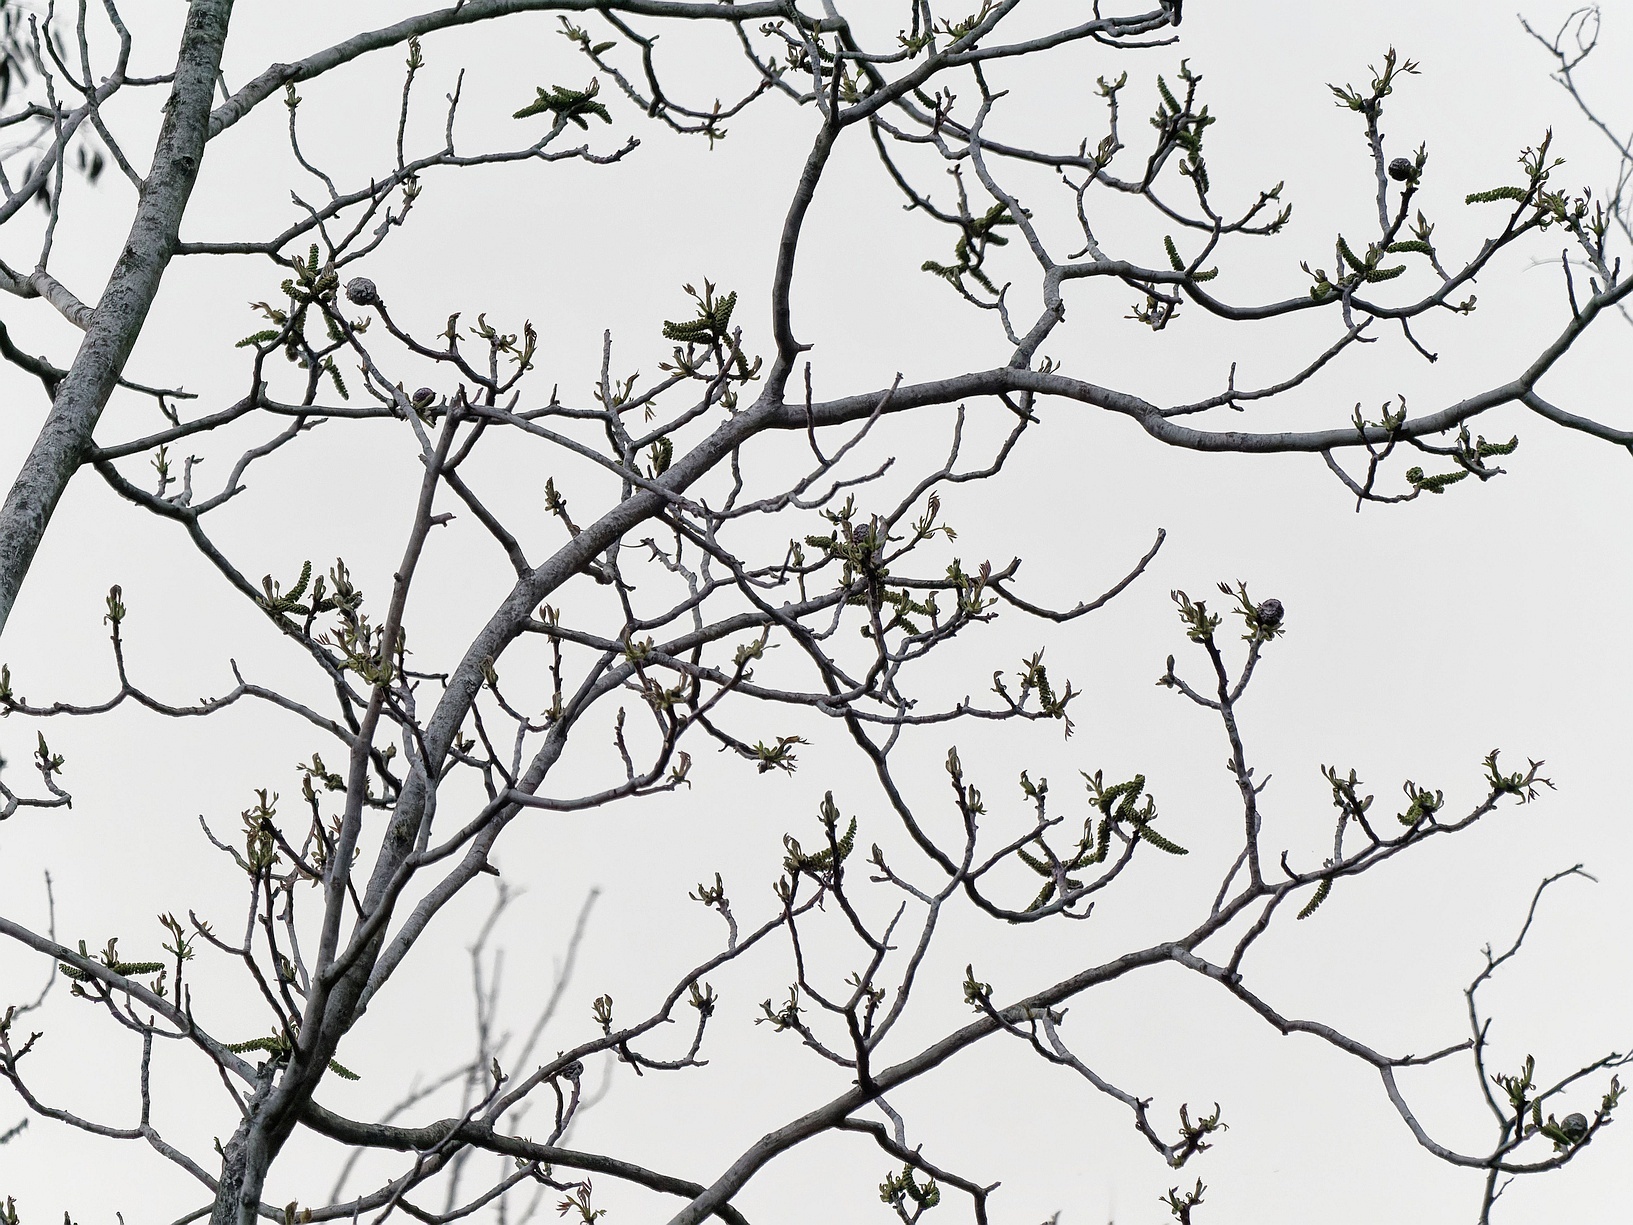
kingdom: Plantae
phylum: Tracheophyta
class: Magnoliopsida
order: Fagales
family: Juglandaceae
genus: Juglans
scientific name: Juglans regia
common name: Walnut
